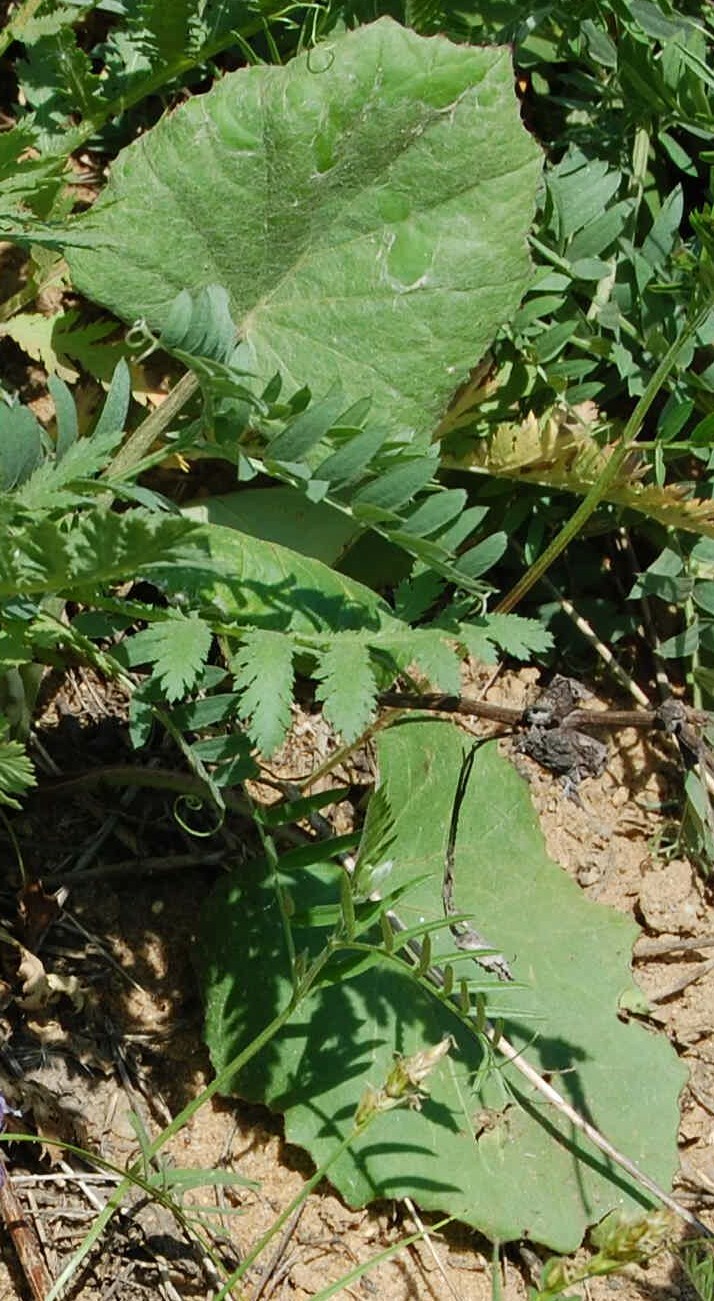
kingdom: Plantae
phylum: Tracheophyta
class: Magnoliopsida
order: Asterales
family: Asteraceae
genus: Tussilago
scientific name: Tussilago farfara
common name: Coltsfoot
